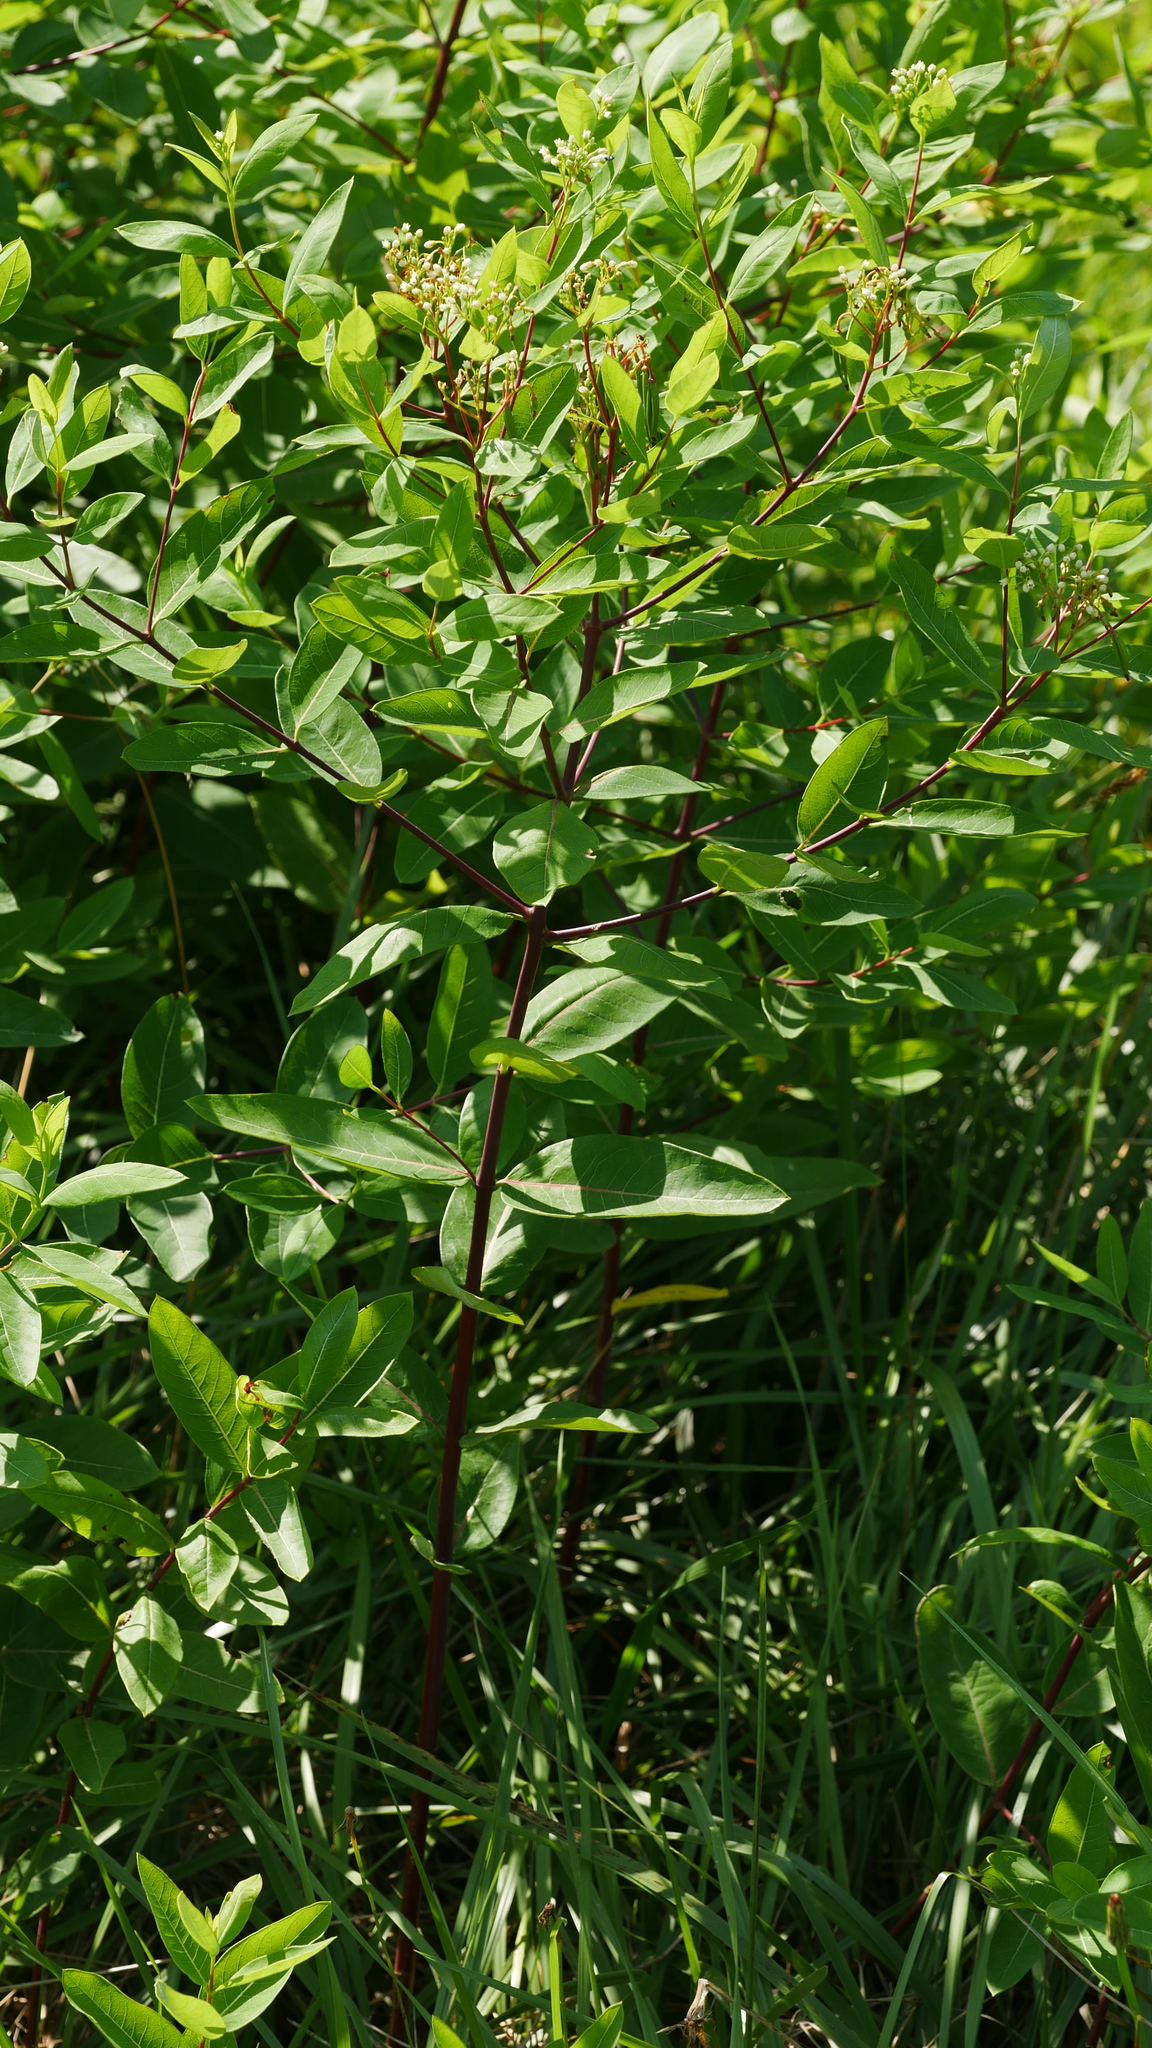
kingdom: Plantae
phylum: Tracheophyta
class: Magnoliopsida
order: Gentianales
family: Apocynaceae
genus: Apocynum
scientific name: Apocynum cannabinum
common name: Hemp dogbane
